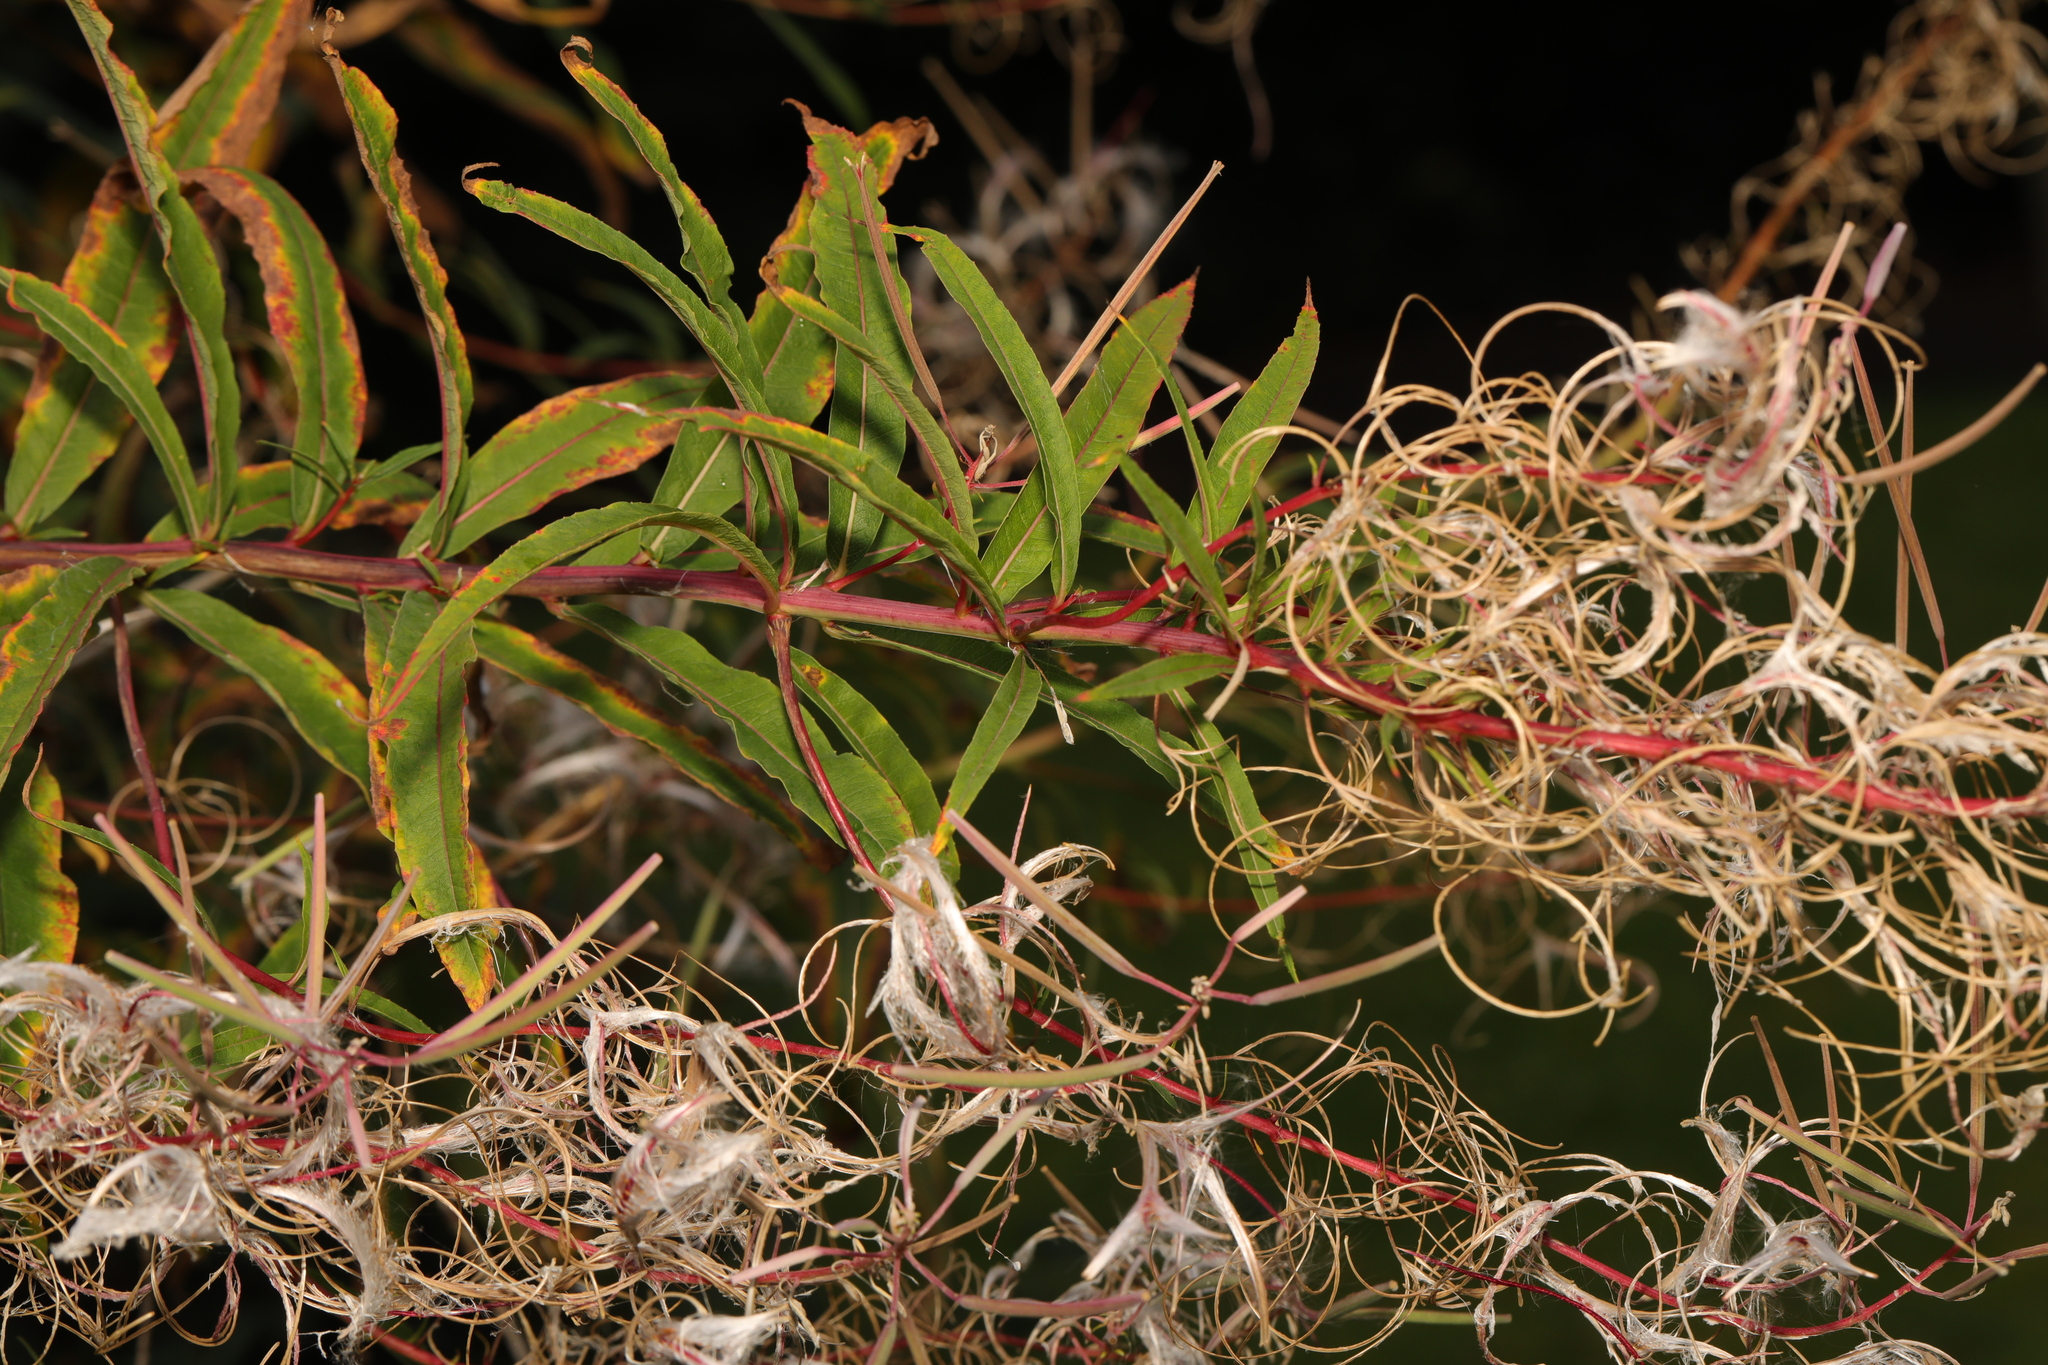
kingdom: Plantae
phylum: Tracheophyta
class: Magnoliopsida
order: Myrtales
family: Onagraceae
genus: Chamaenerion
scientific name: Chamaenerion angustifolium
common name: Fireweed
